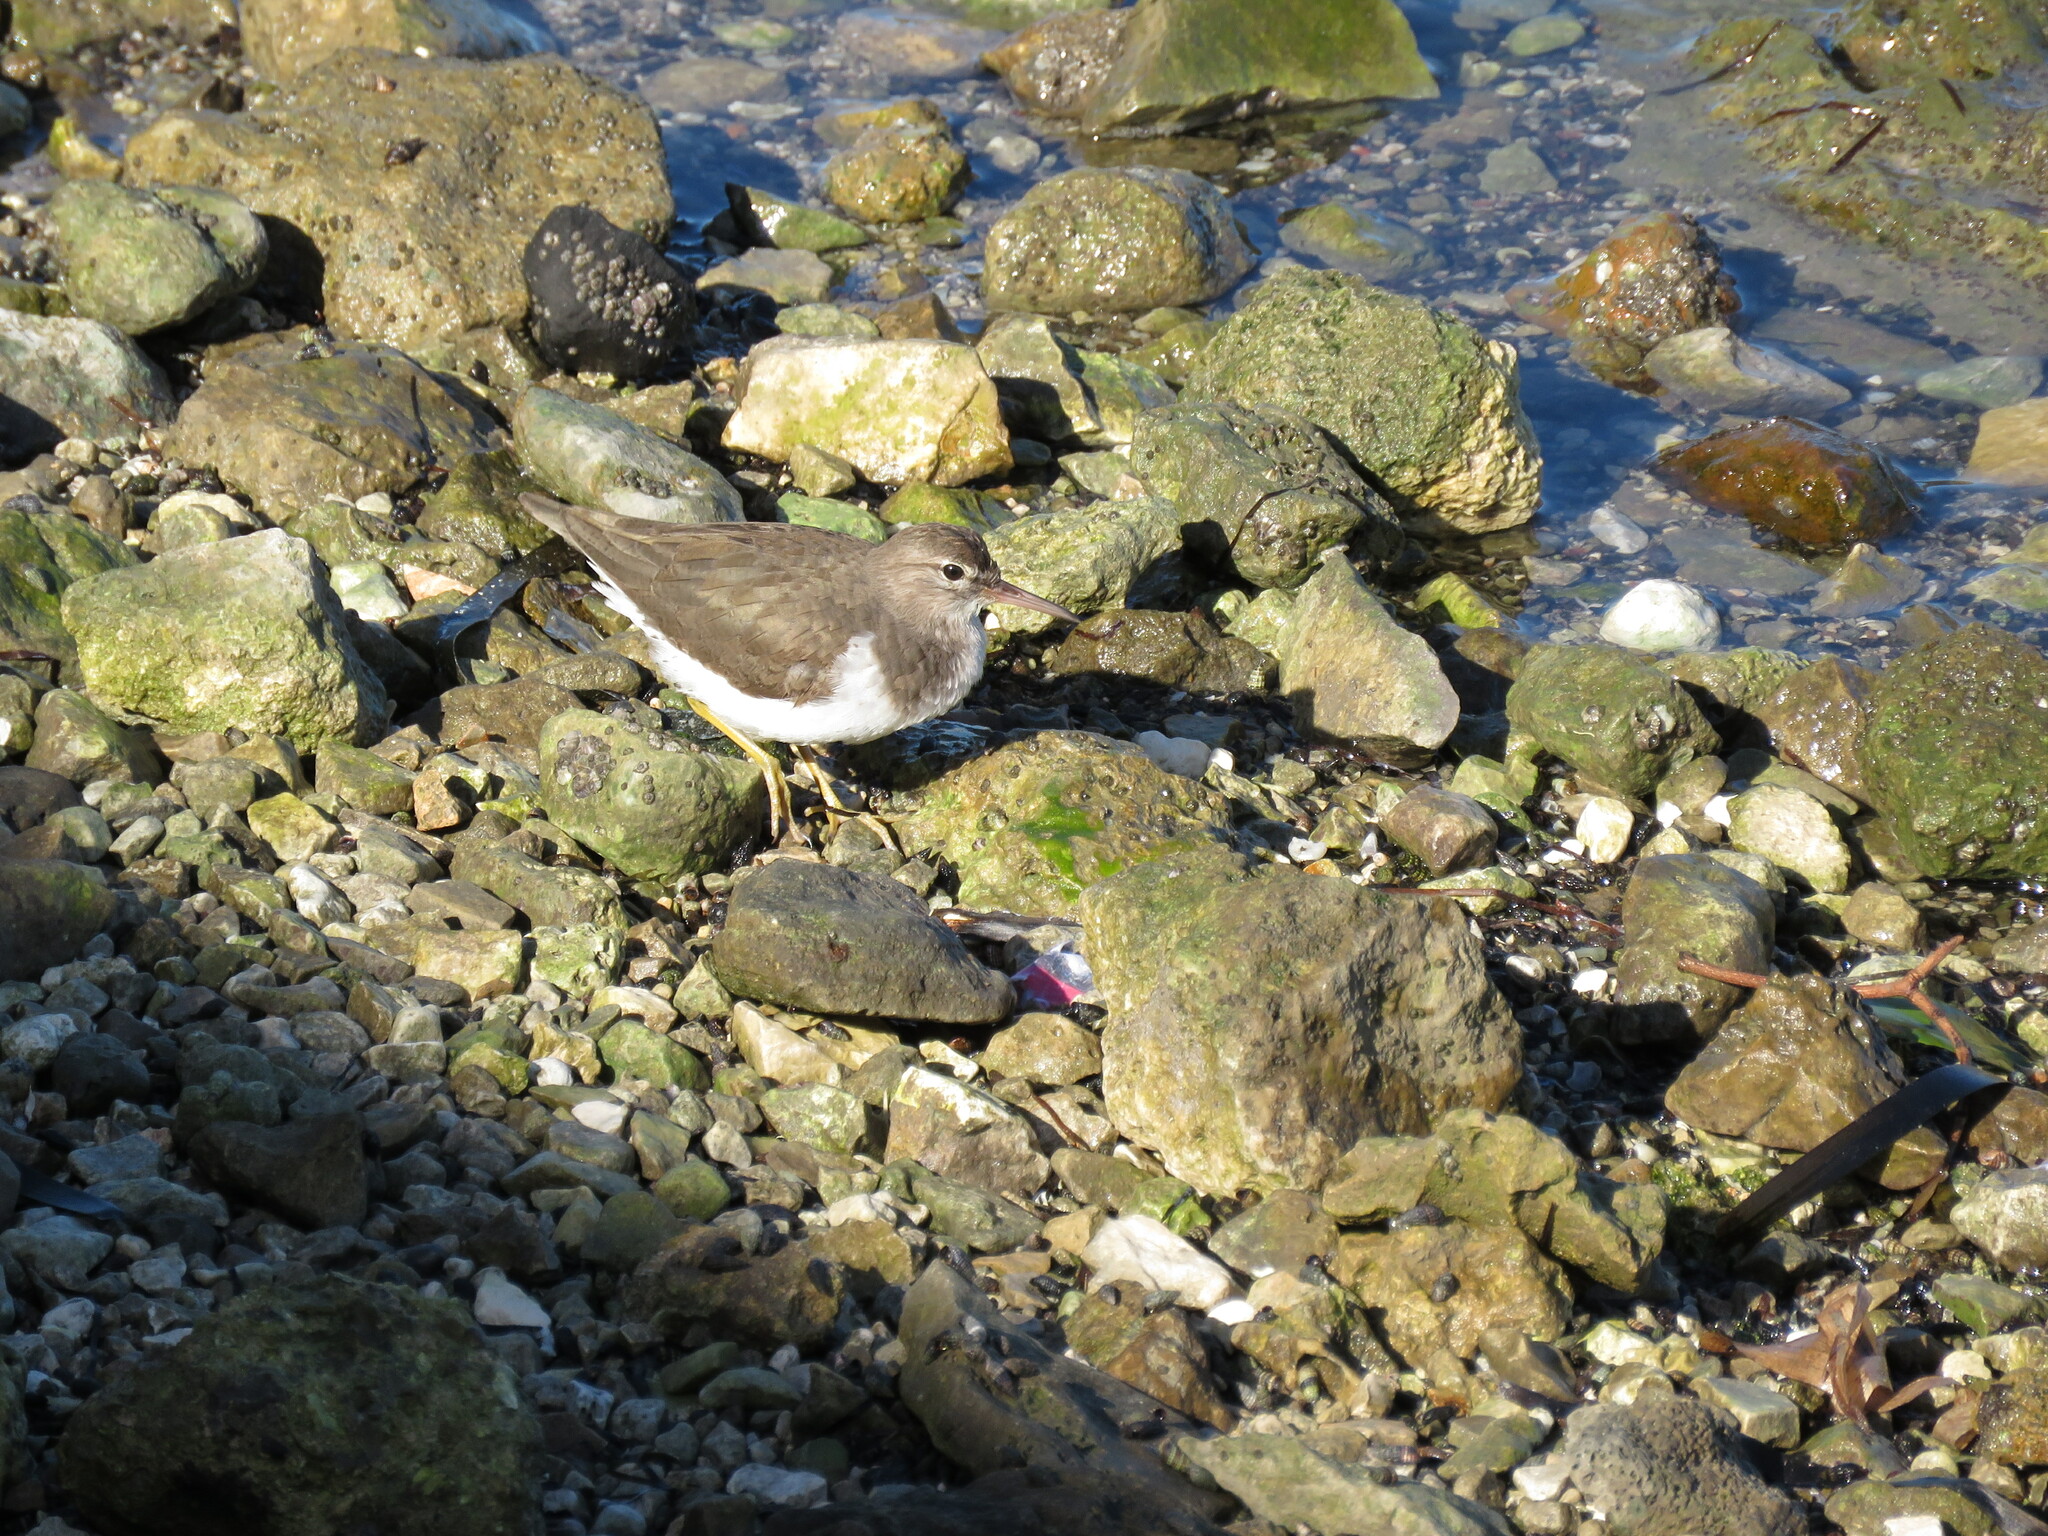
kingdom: Animalia
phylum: Chordata
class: Aves
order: Charadriiformes
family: Scolopacidae
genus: Actitis
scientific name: Actitis macularius
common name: Spotted sandpiper
